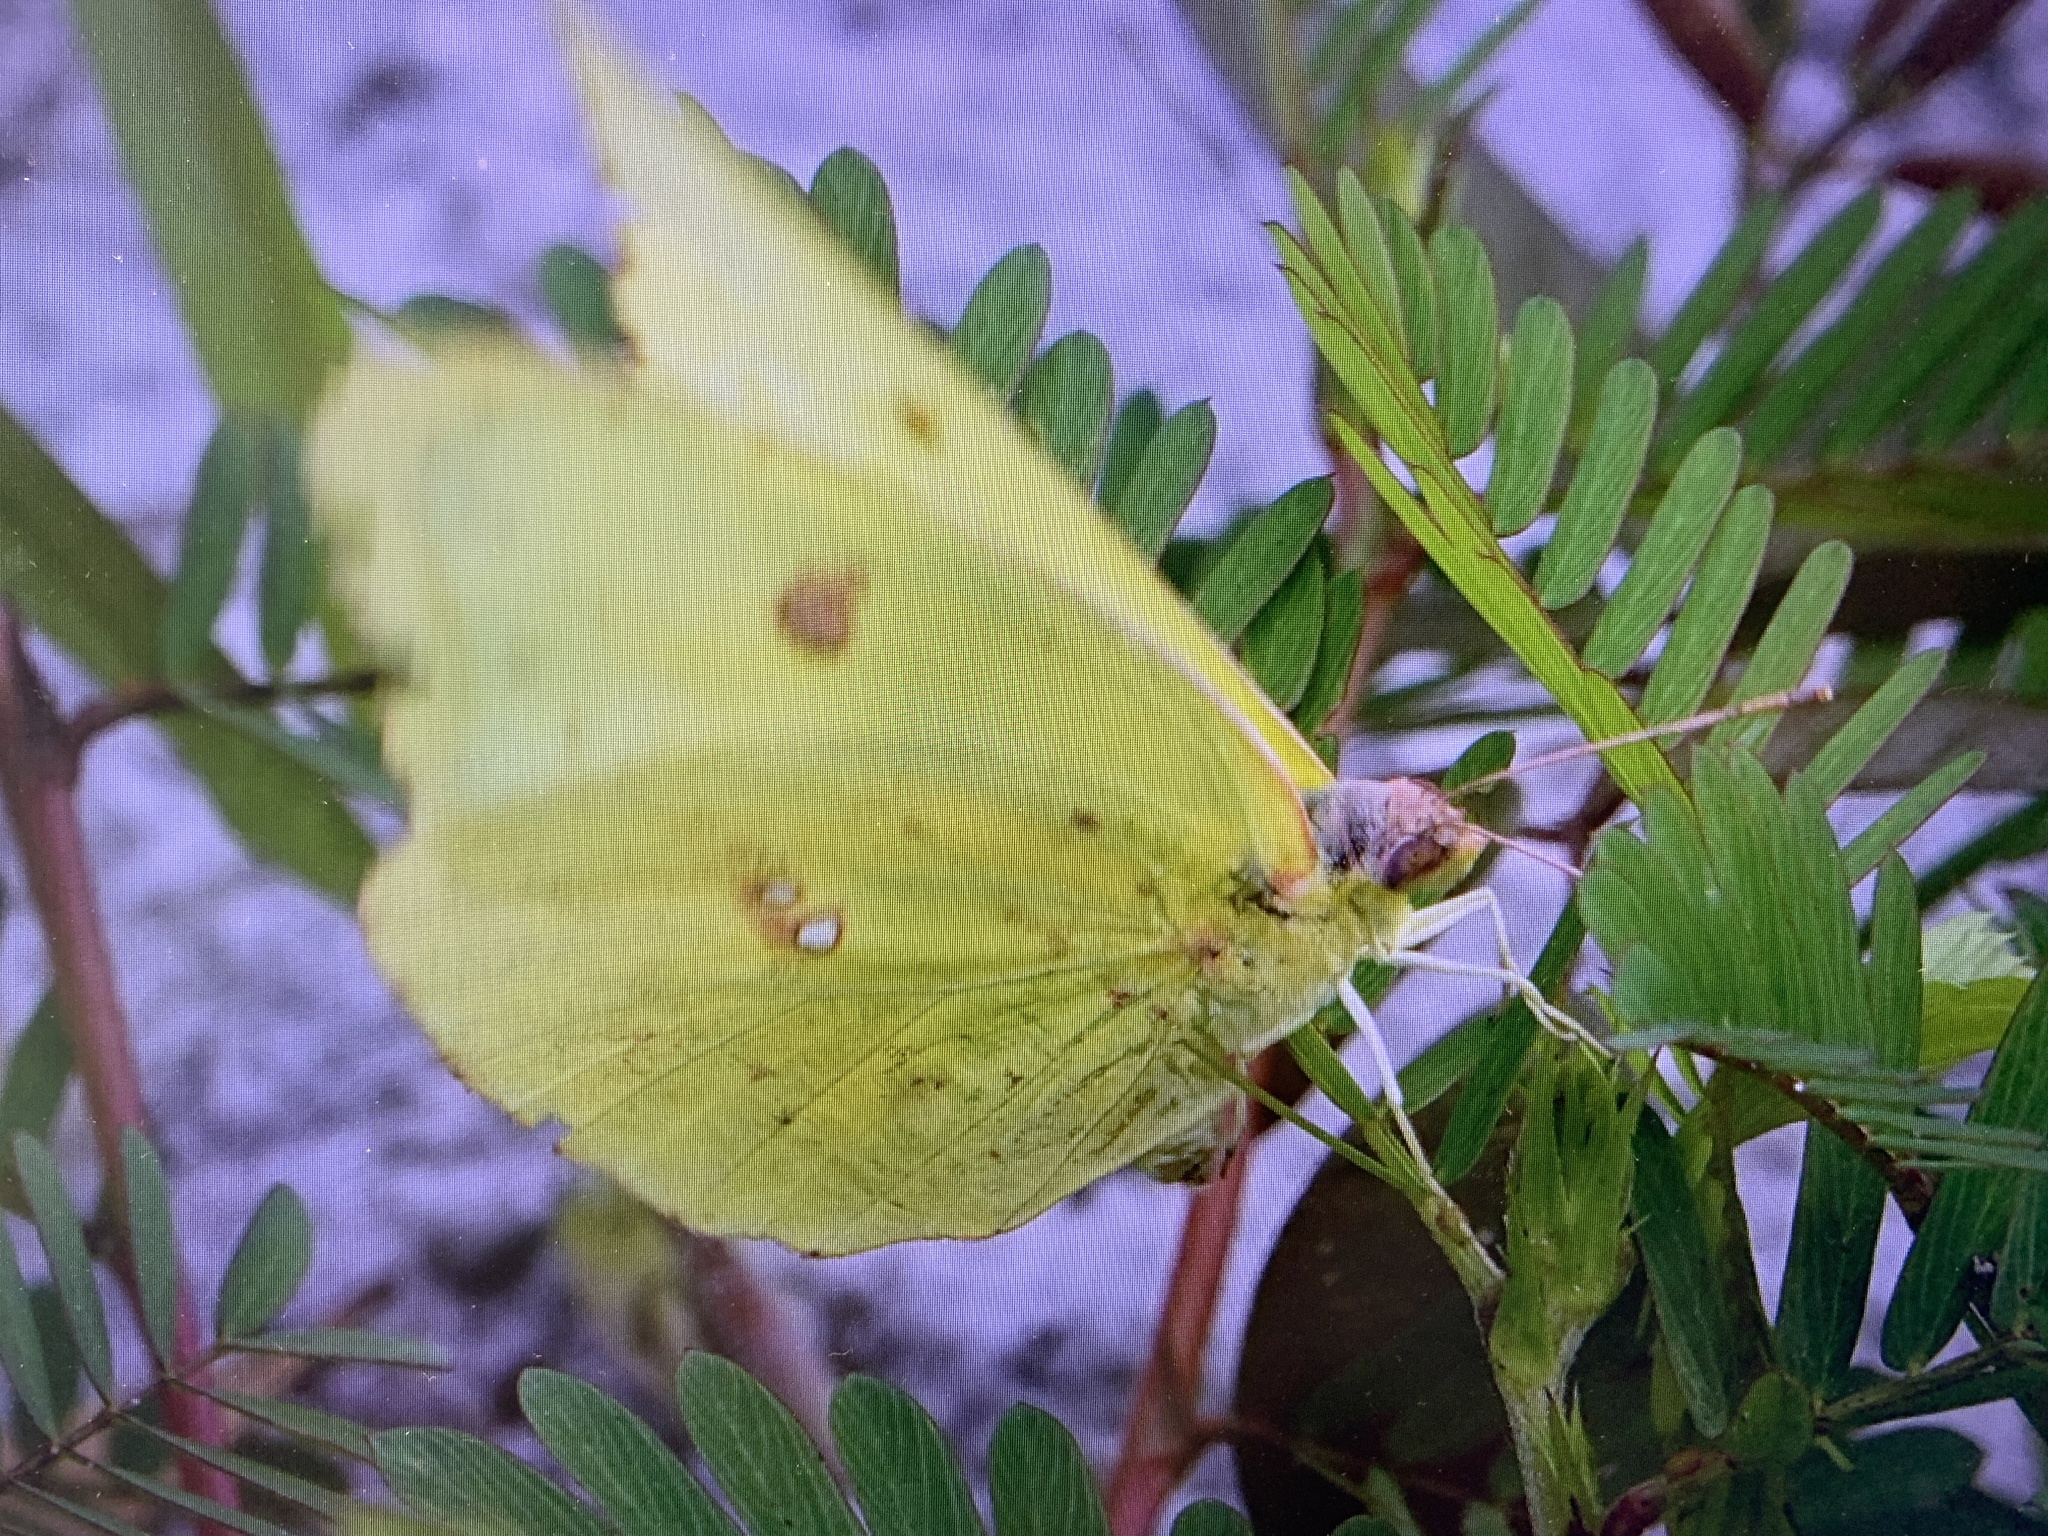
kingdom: Animalia
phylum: Arthropoda
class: Insecta
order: Lepidoptera
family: Pieridae
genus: Phoebis
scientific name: Phoebis sennae
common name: Cloudless sulphur
